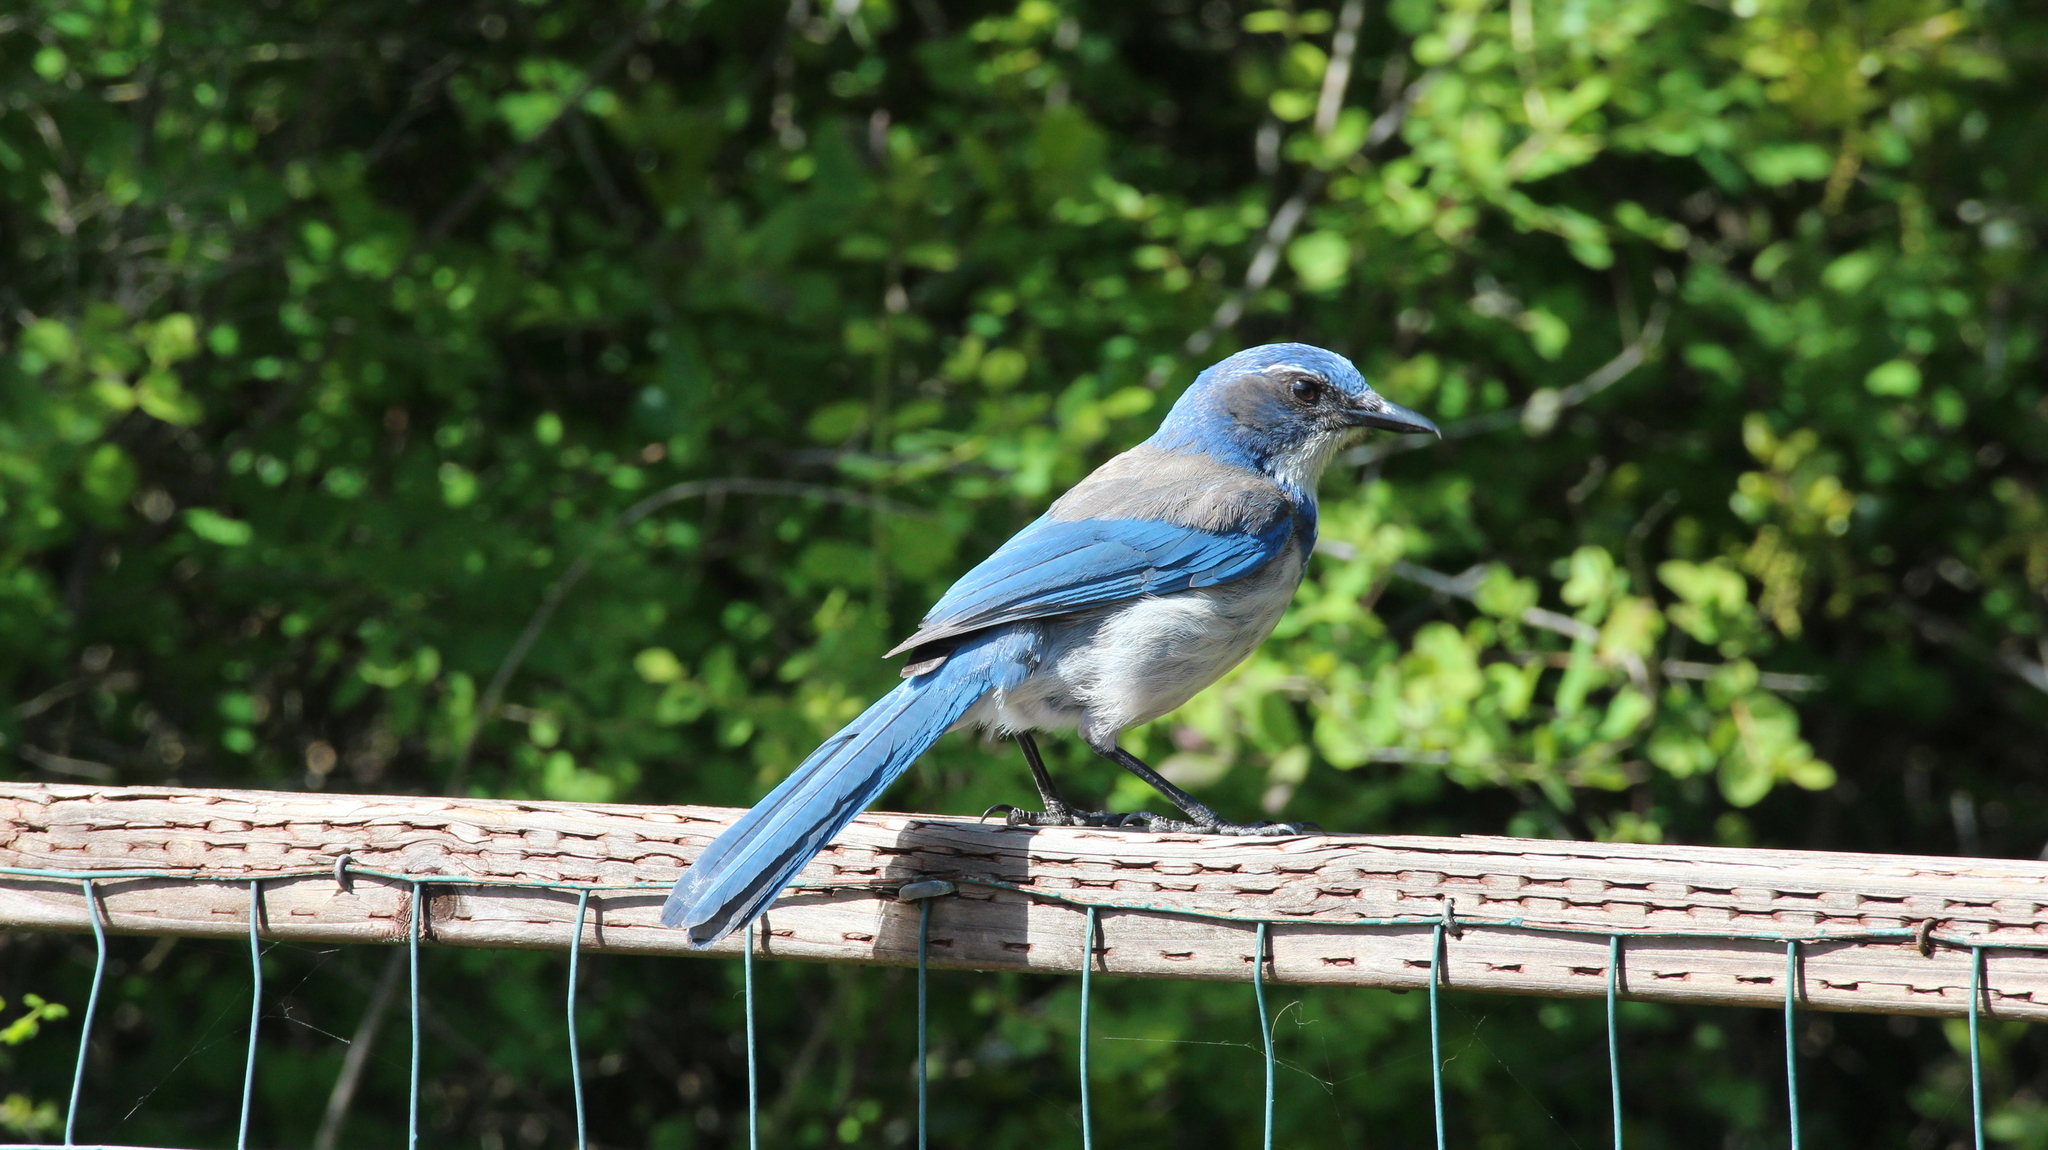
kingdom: Animalia
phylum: Chordata
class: Aves
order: Passeriformes
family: Corvidae
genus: Aphelocoma
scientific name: Aphelocoma californica
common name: California scrub-jay
